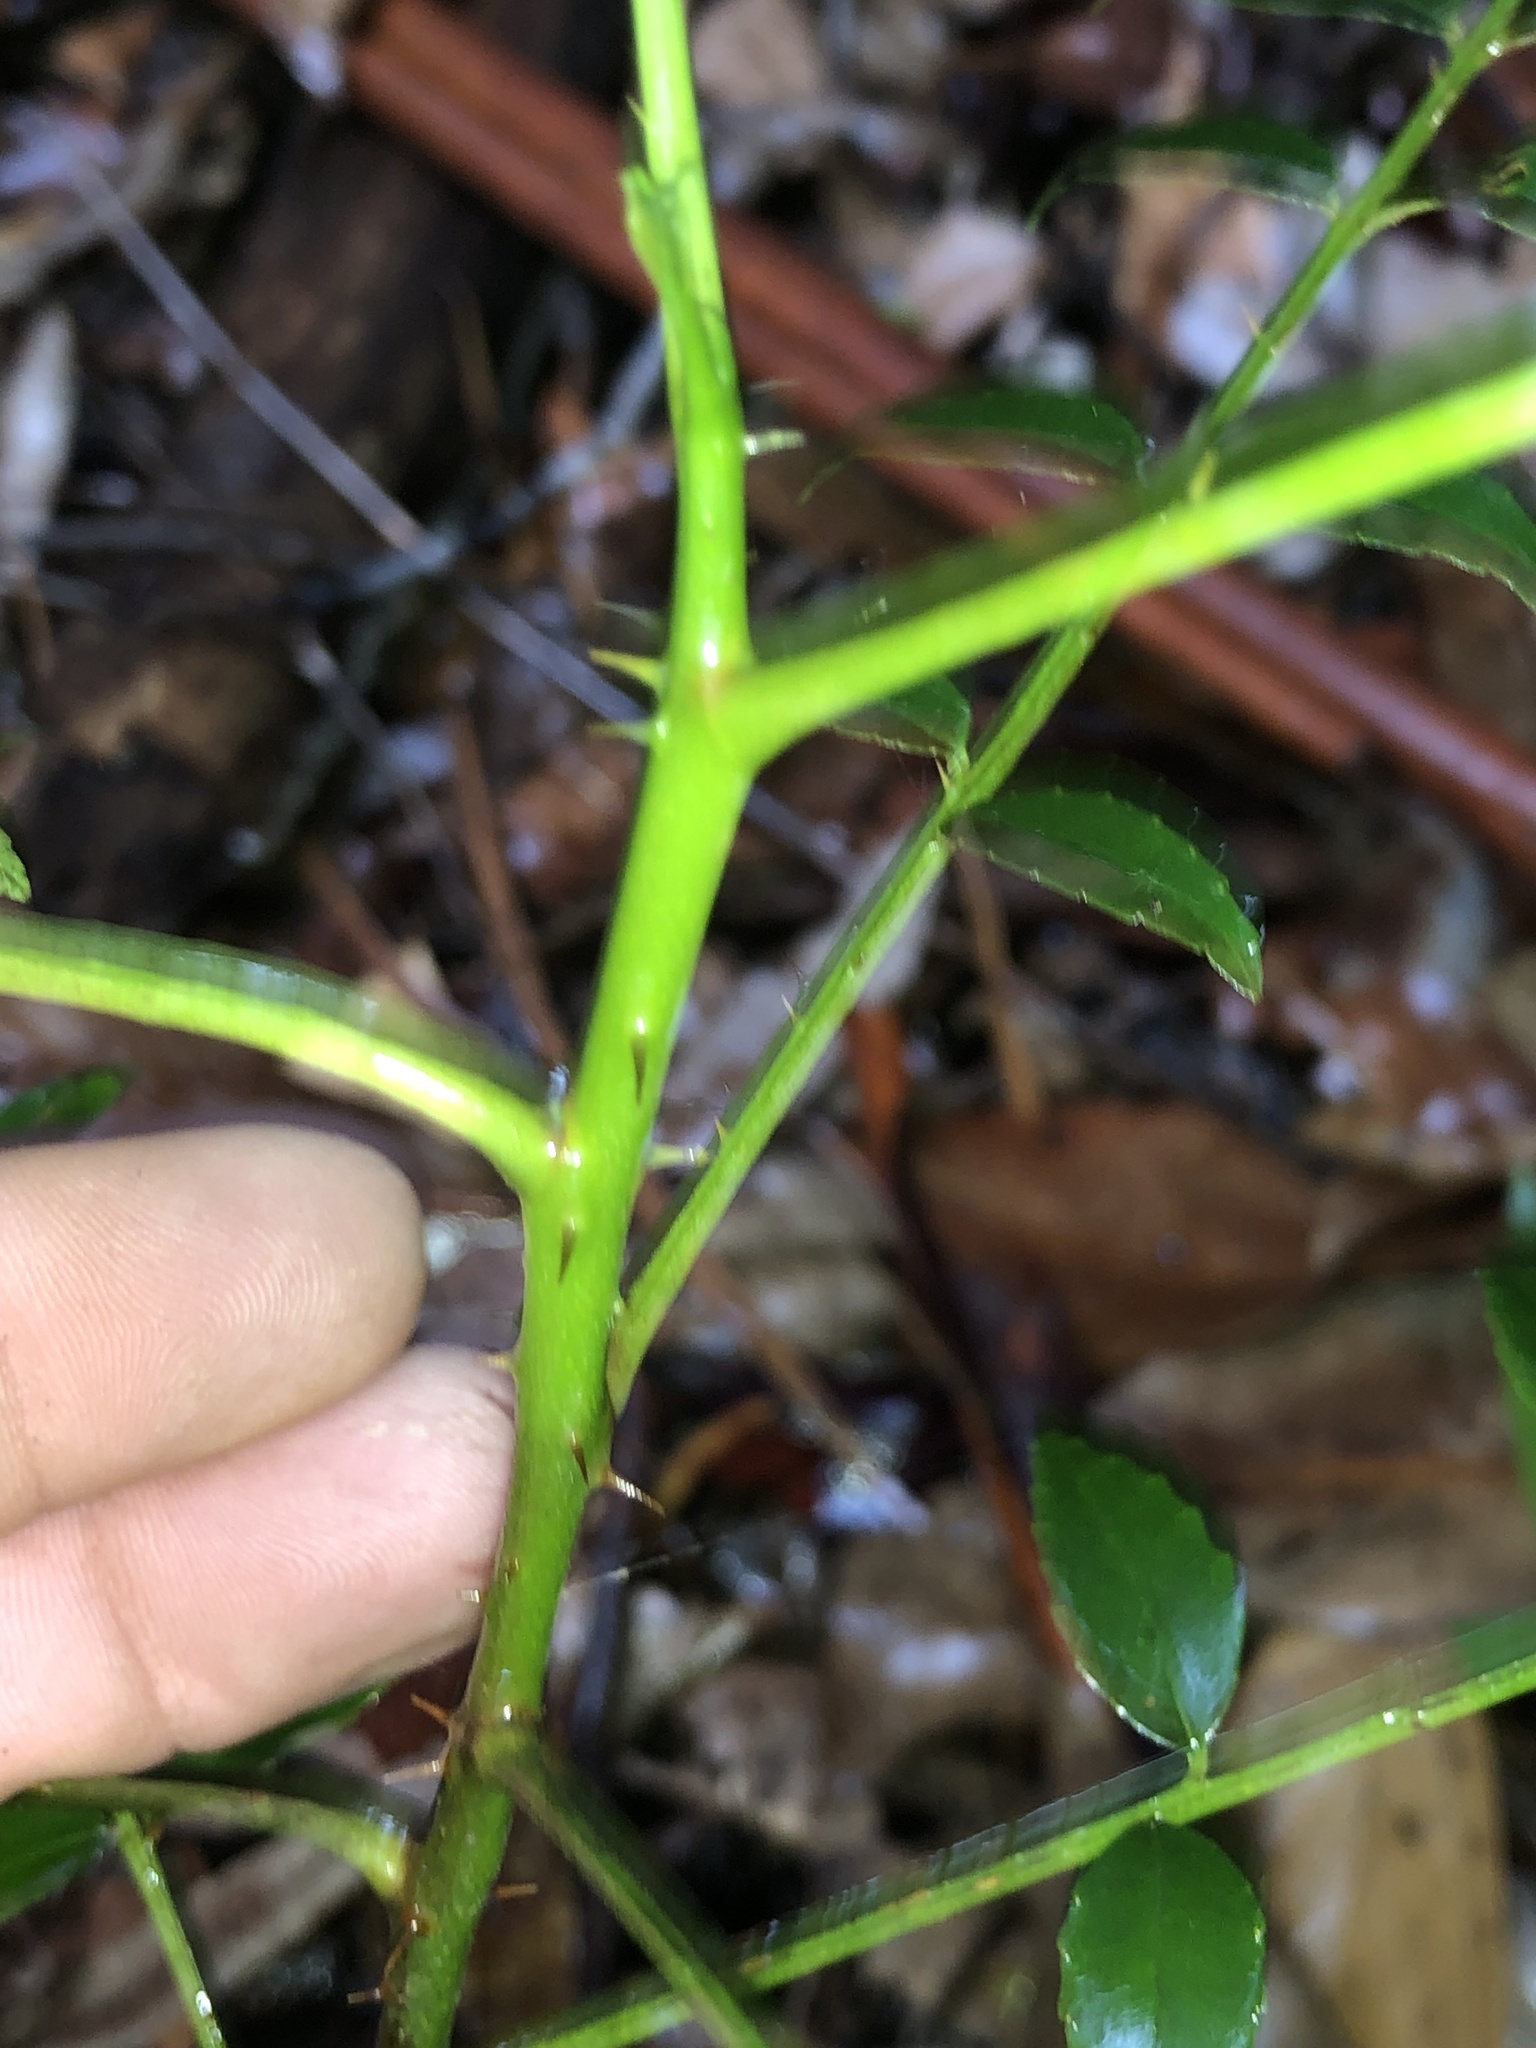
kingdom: Plantae
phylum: Tracheophyta
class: Magnoliopsida
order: Sapindales
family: Rutaceae
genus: Zanthoxylum
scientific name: Zanthoxylum brachyacanthum
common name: Satinwood
